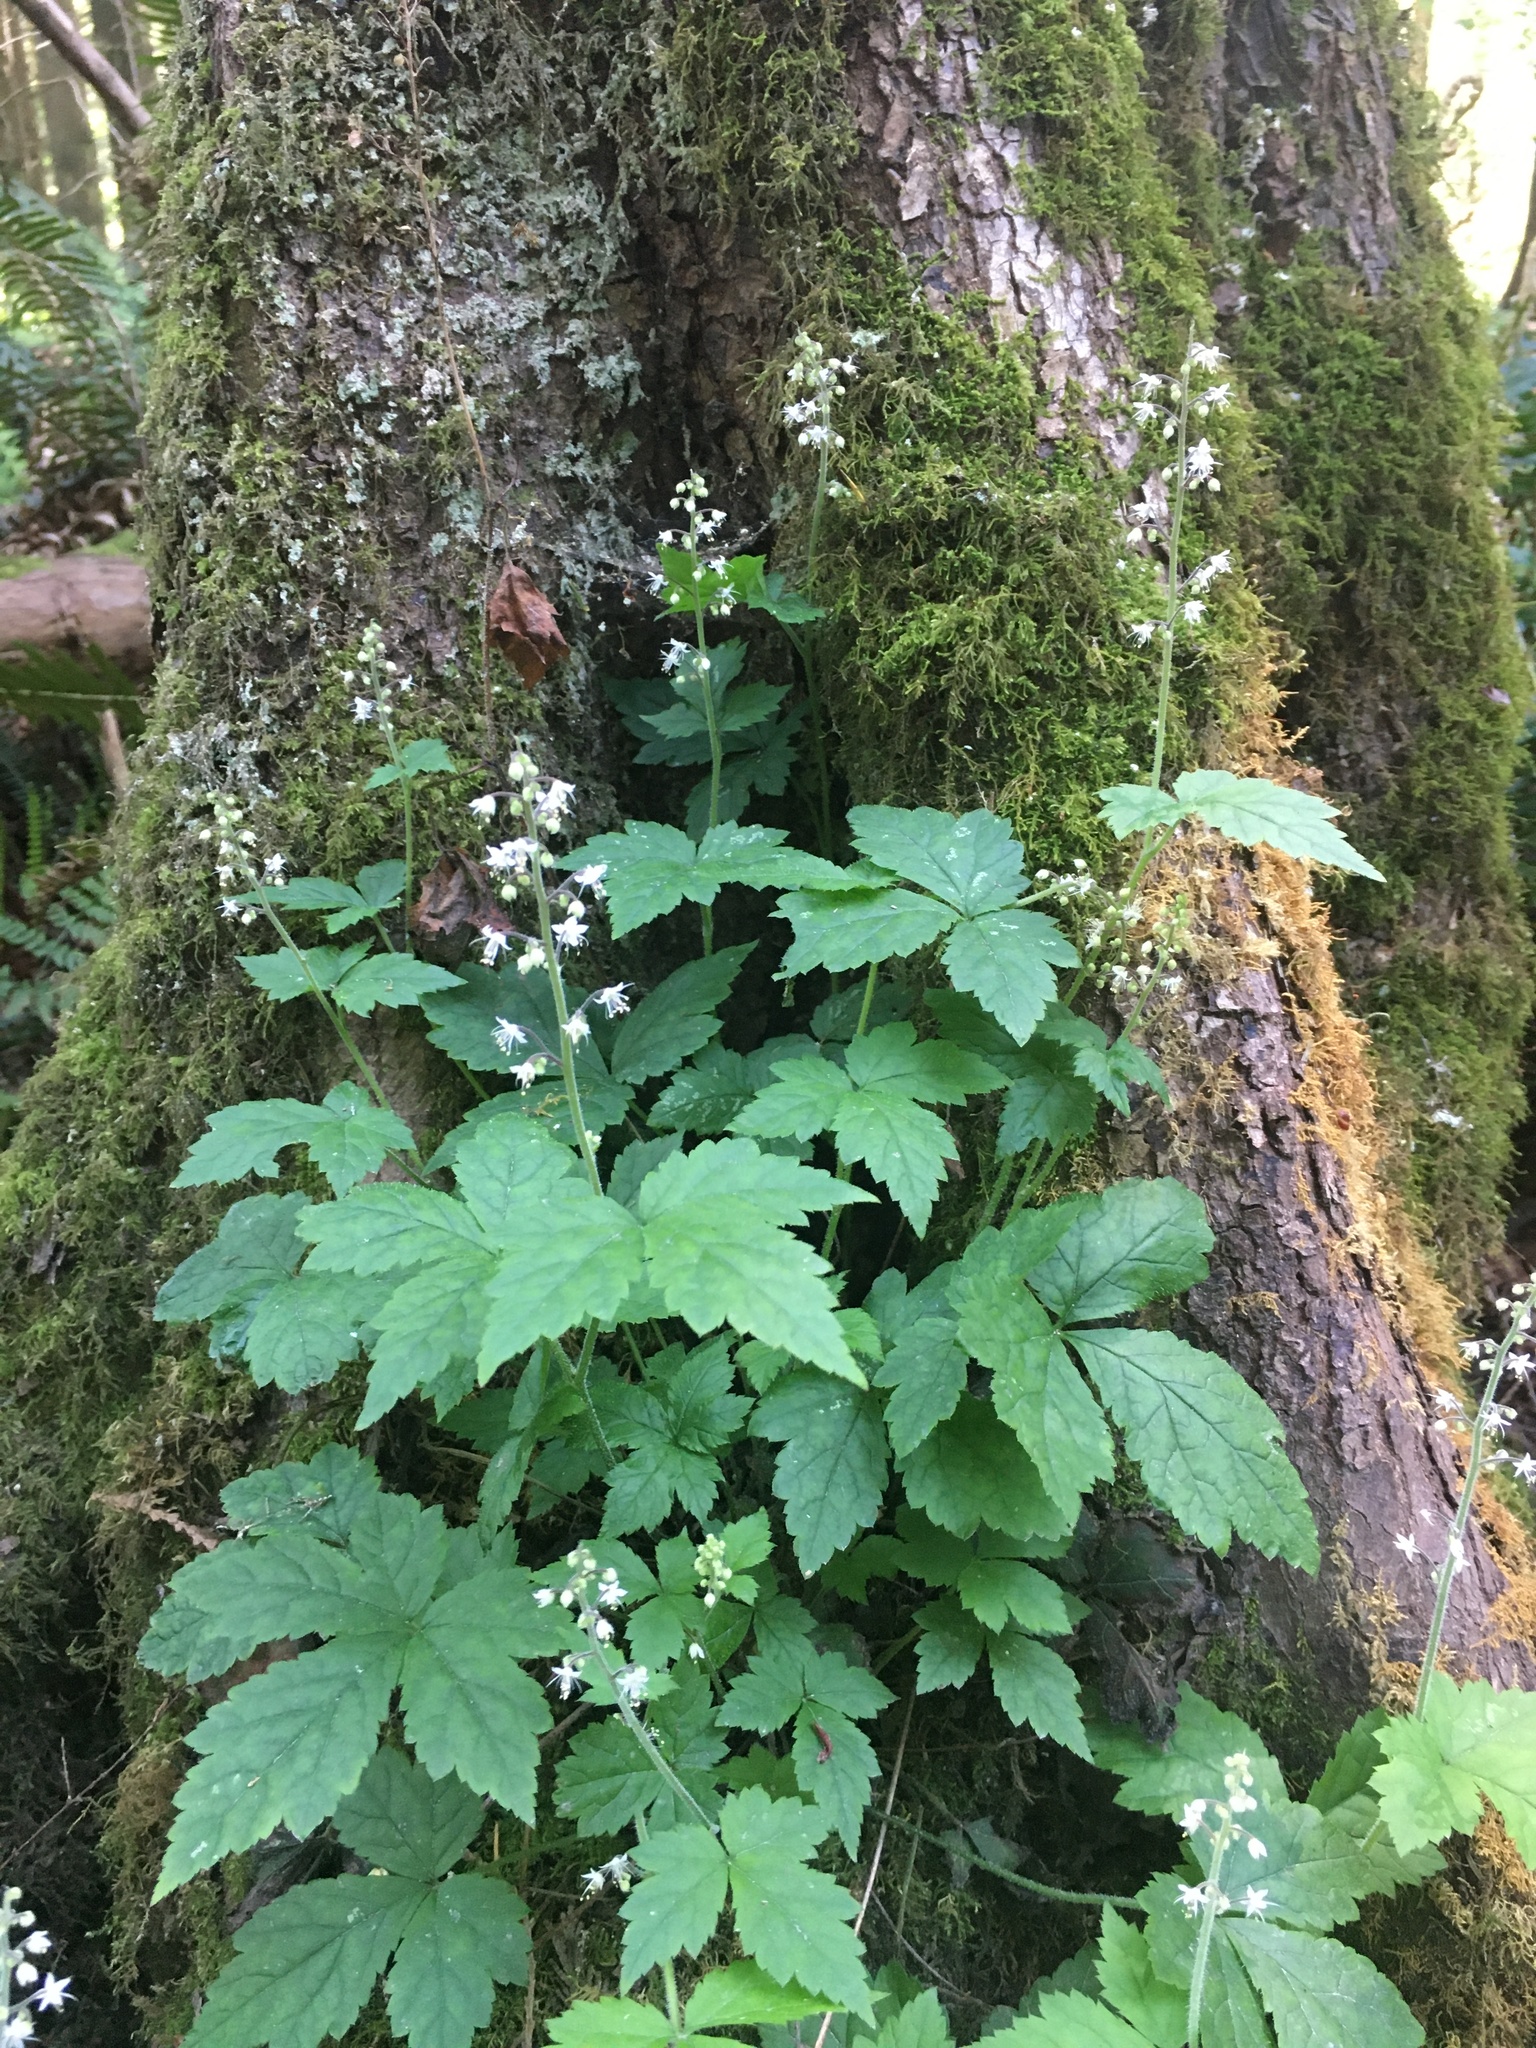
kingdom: Plantae
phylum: Tracheophyta
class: Magnoliopsida
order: Saxifragales
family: Saxifragaceae
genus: Tiarella
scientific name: Tiarella trifoliata
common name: Sugar-scoop
